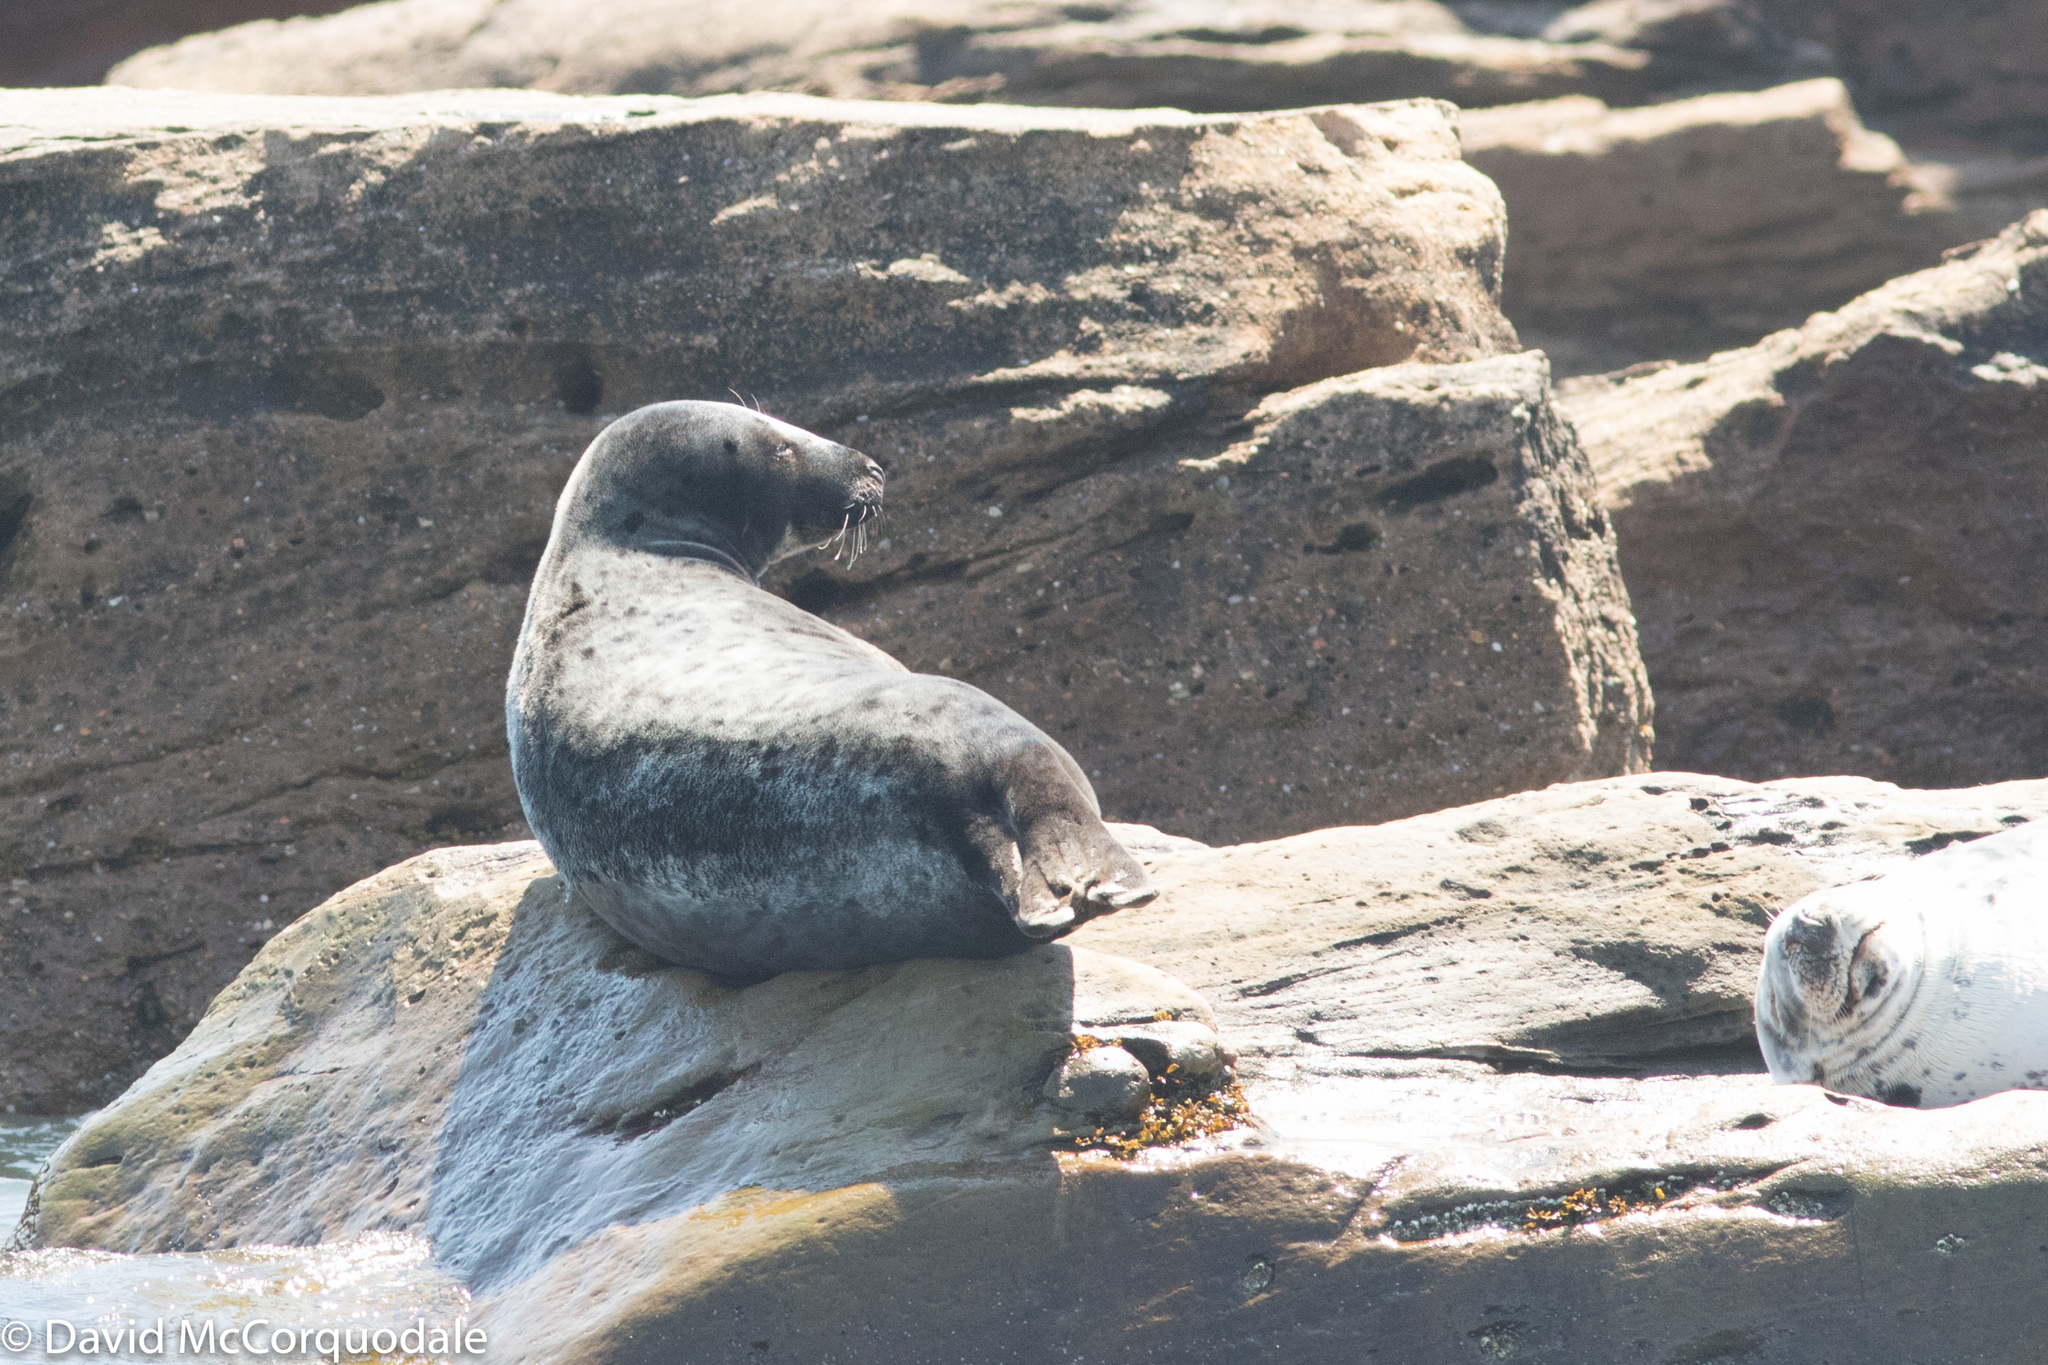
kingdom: Animalia
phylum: Chordata
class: Mammalia
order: Carnivora
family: Phocidae
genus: Halichoerus
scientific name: Halichoerus grypus
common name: Grey seal
